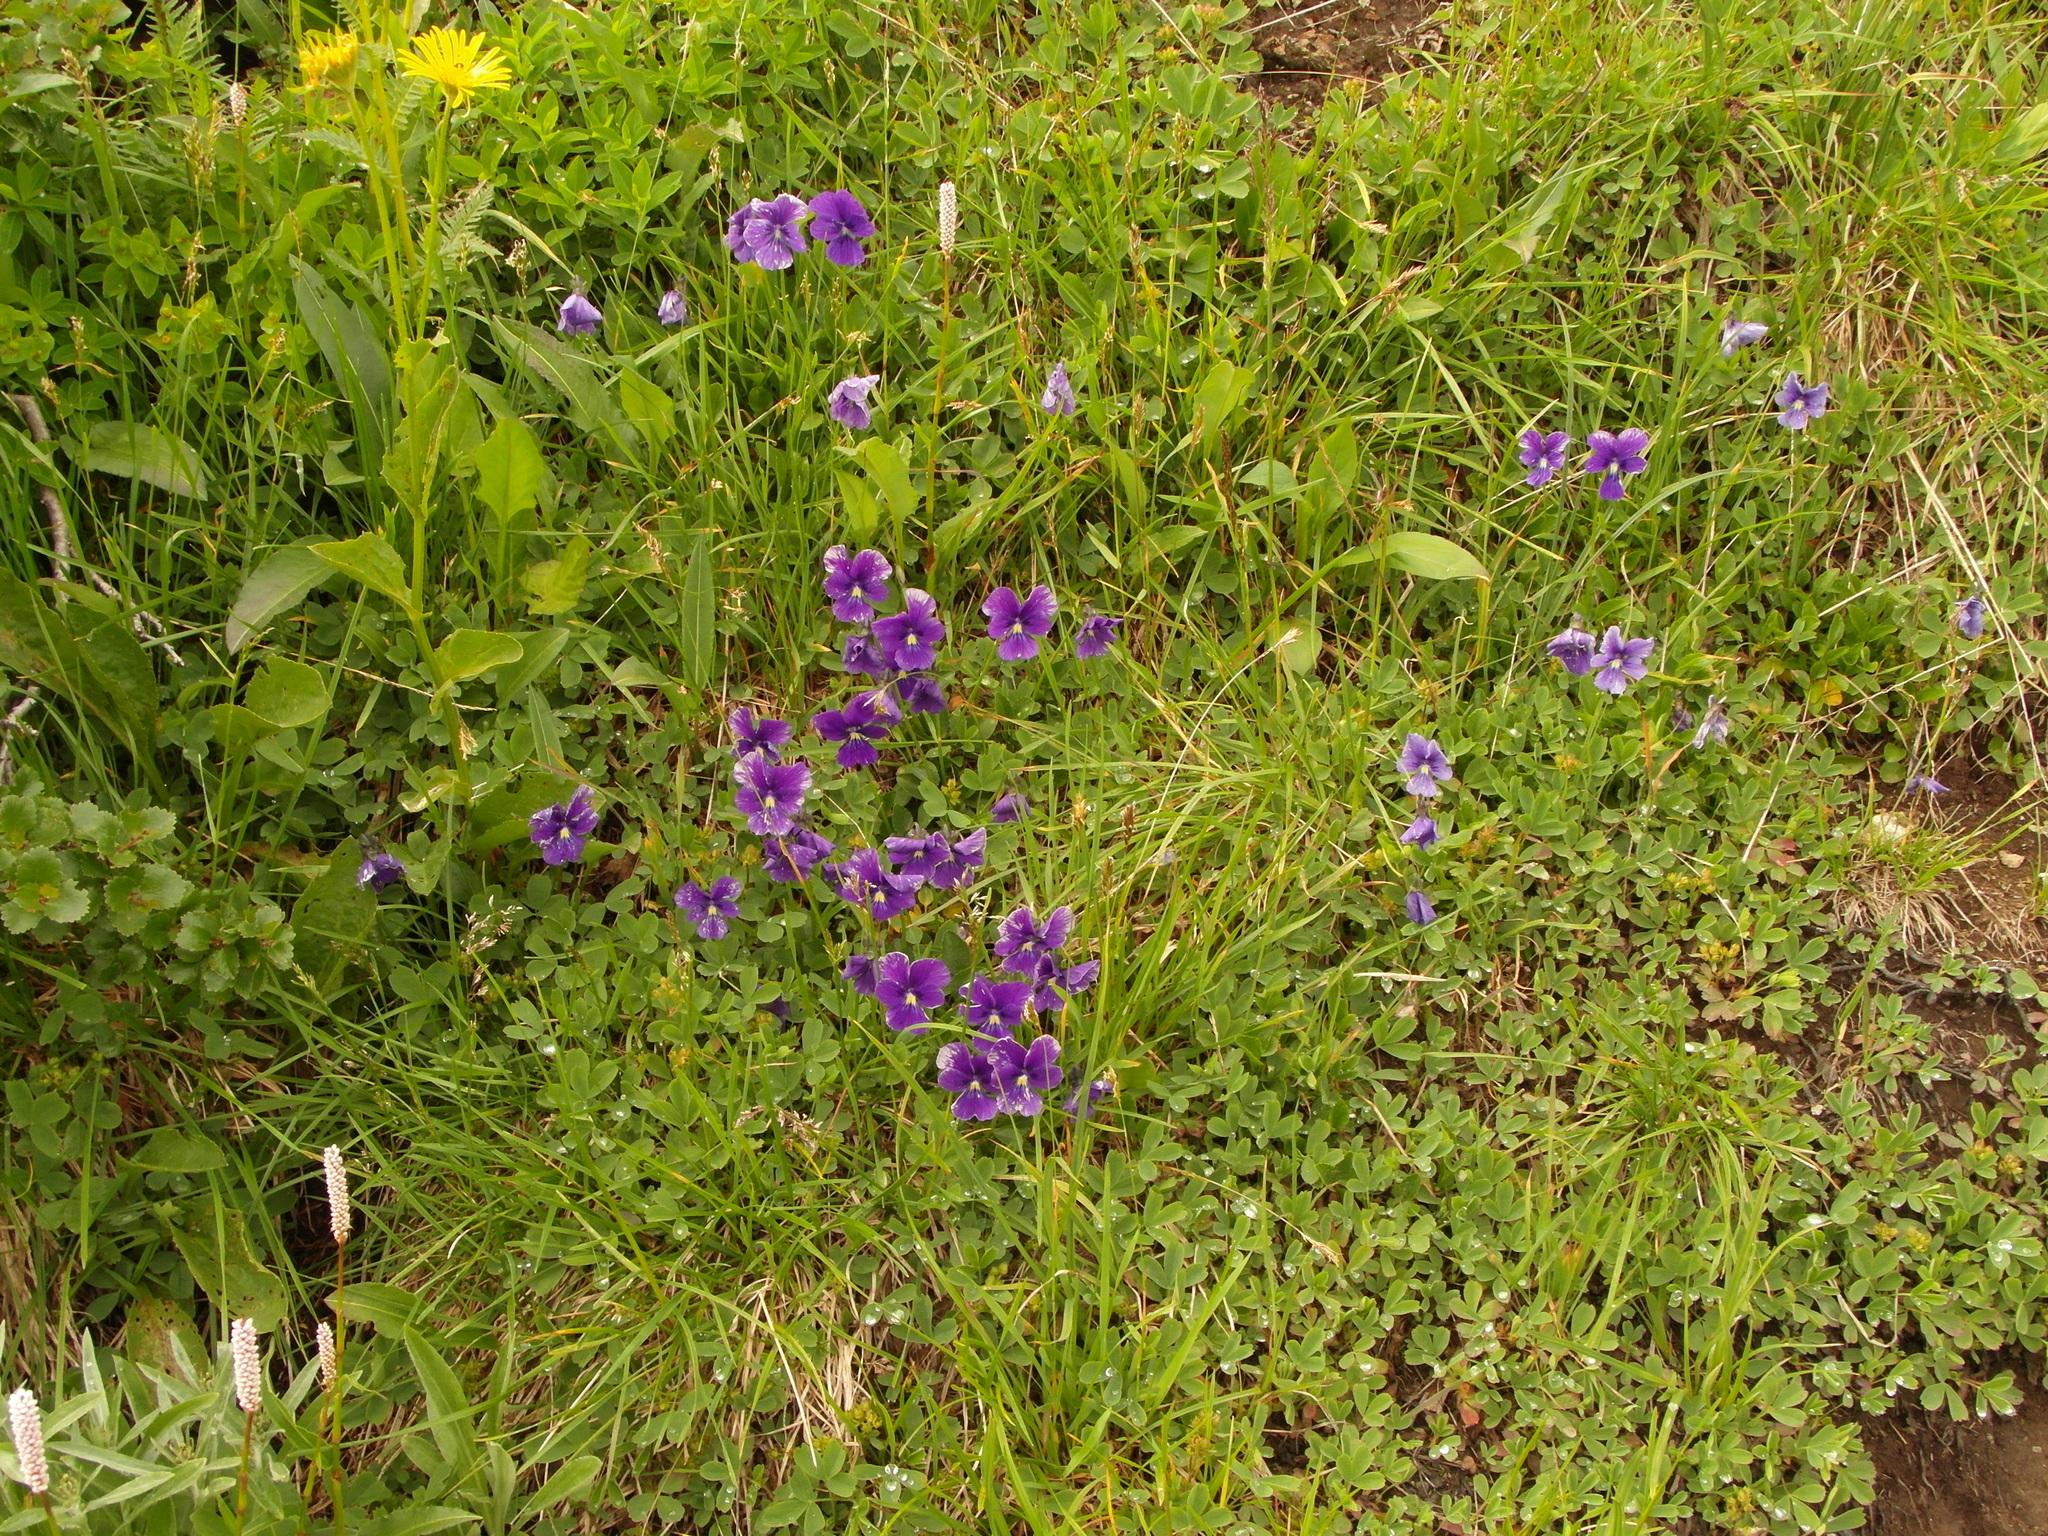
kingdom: Plantae
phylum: Tracheophyta
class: Magnoliopsida
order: Malpighiales
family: Violaceae
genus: Viola
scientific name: Viola altaica
